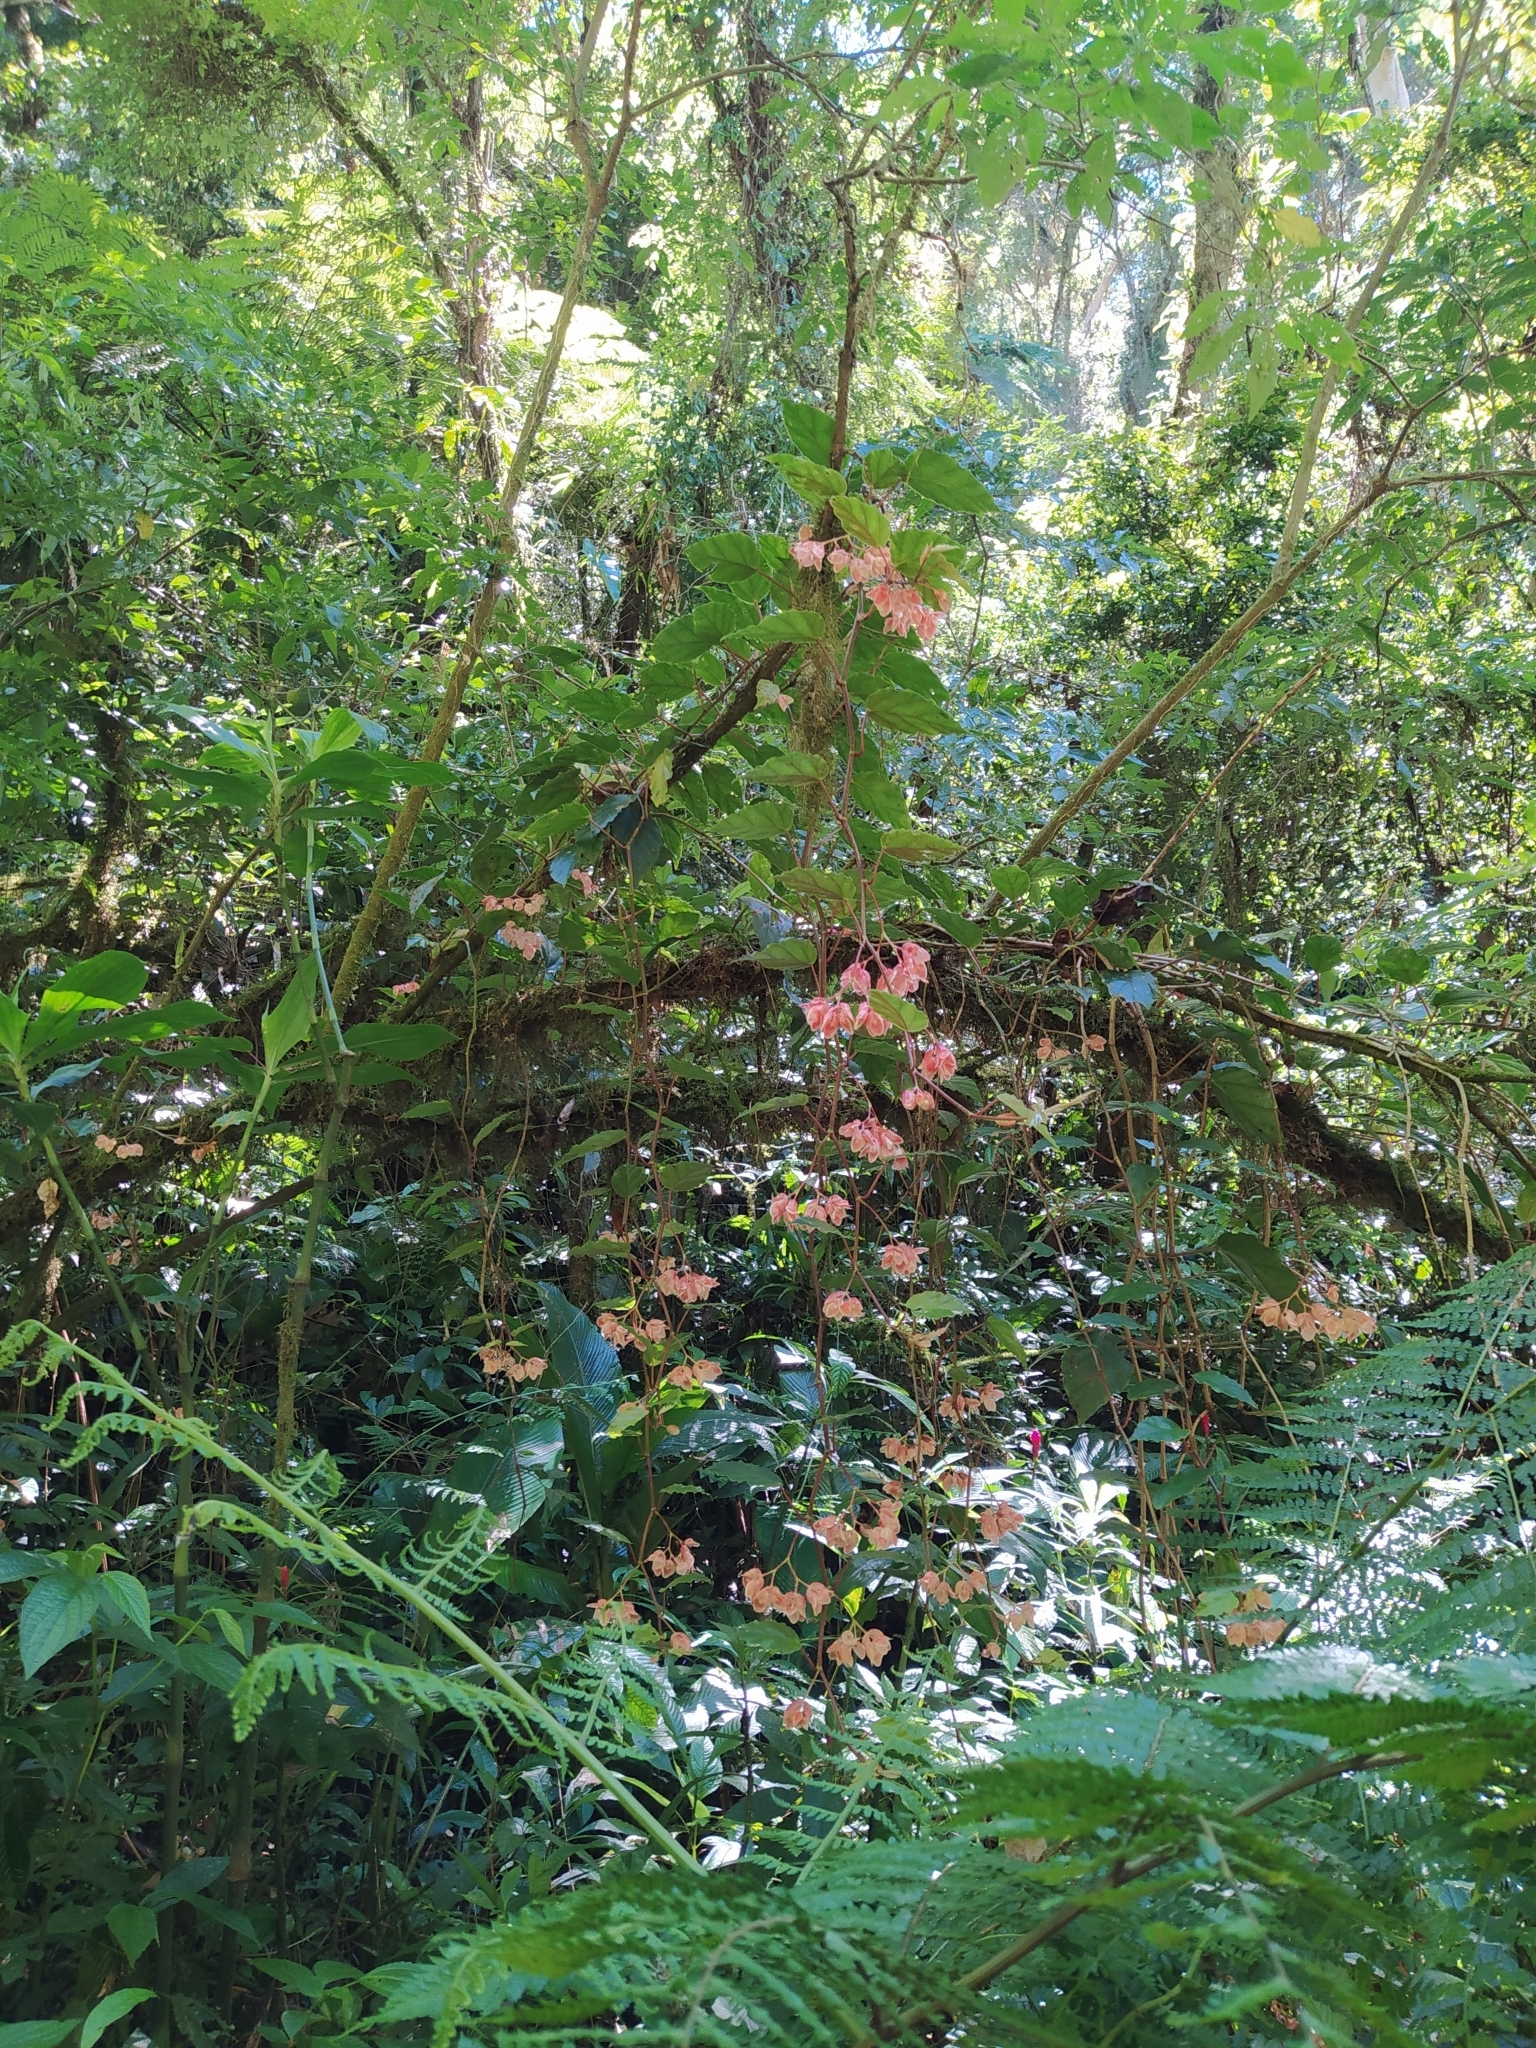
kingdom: Plantae
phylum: Tracheophyta
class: Magnoliopsida
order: Cucurbitales
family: Begoniaceae
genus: Begonia
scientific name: Begonia radicans
